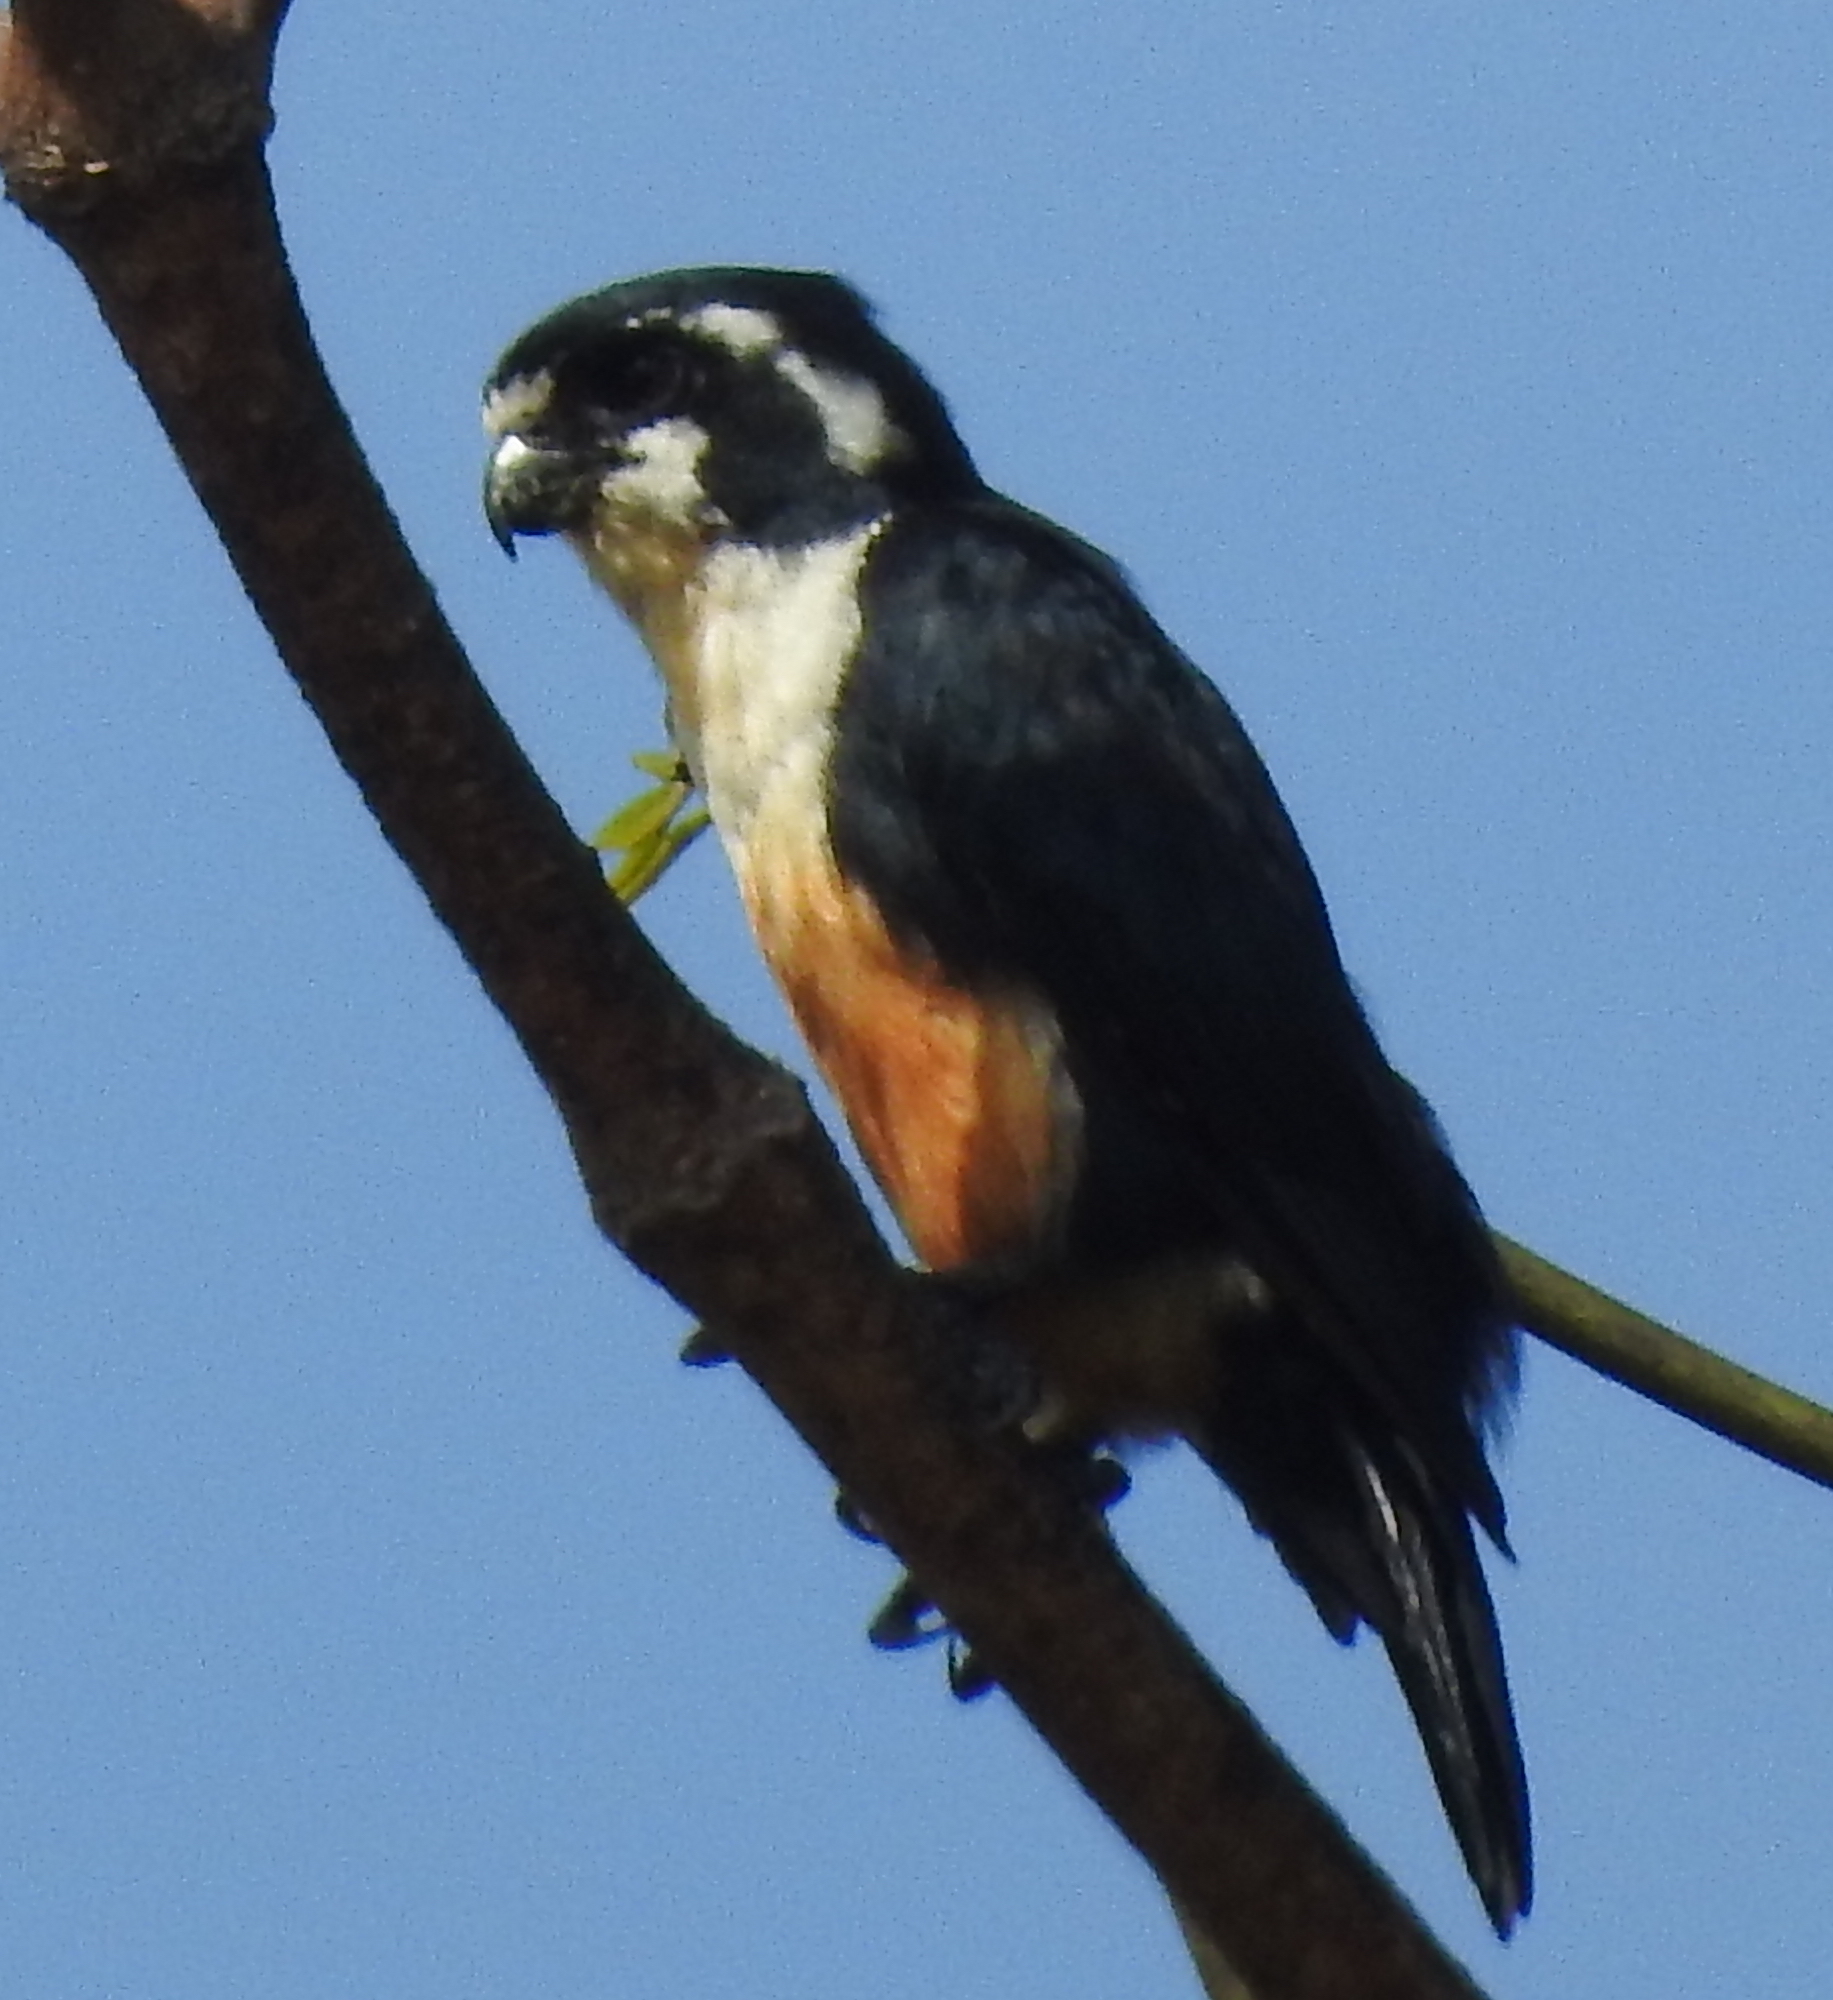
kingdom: Animalia
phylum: Chordata
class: Aves
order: Falconiformes
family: Falconidae
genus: Microhierax
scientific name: Microhierax fringillarius
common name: Black-thighed falconet
